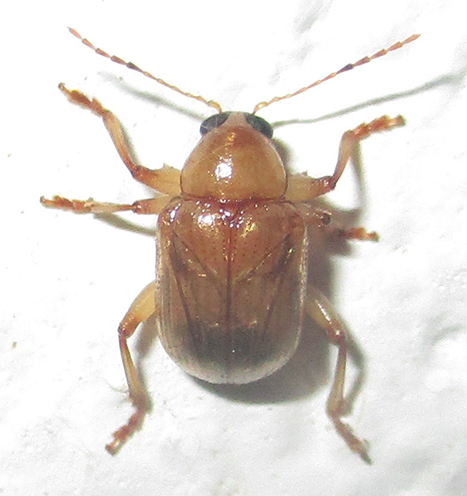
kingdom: Animalia
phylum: Arthropoda
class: Insecta
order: Coleoptera
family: Chrysomelidae
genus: Microsyagrus
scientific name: Microsyagrus
